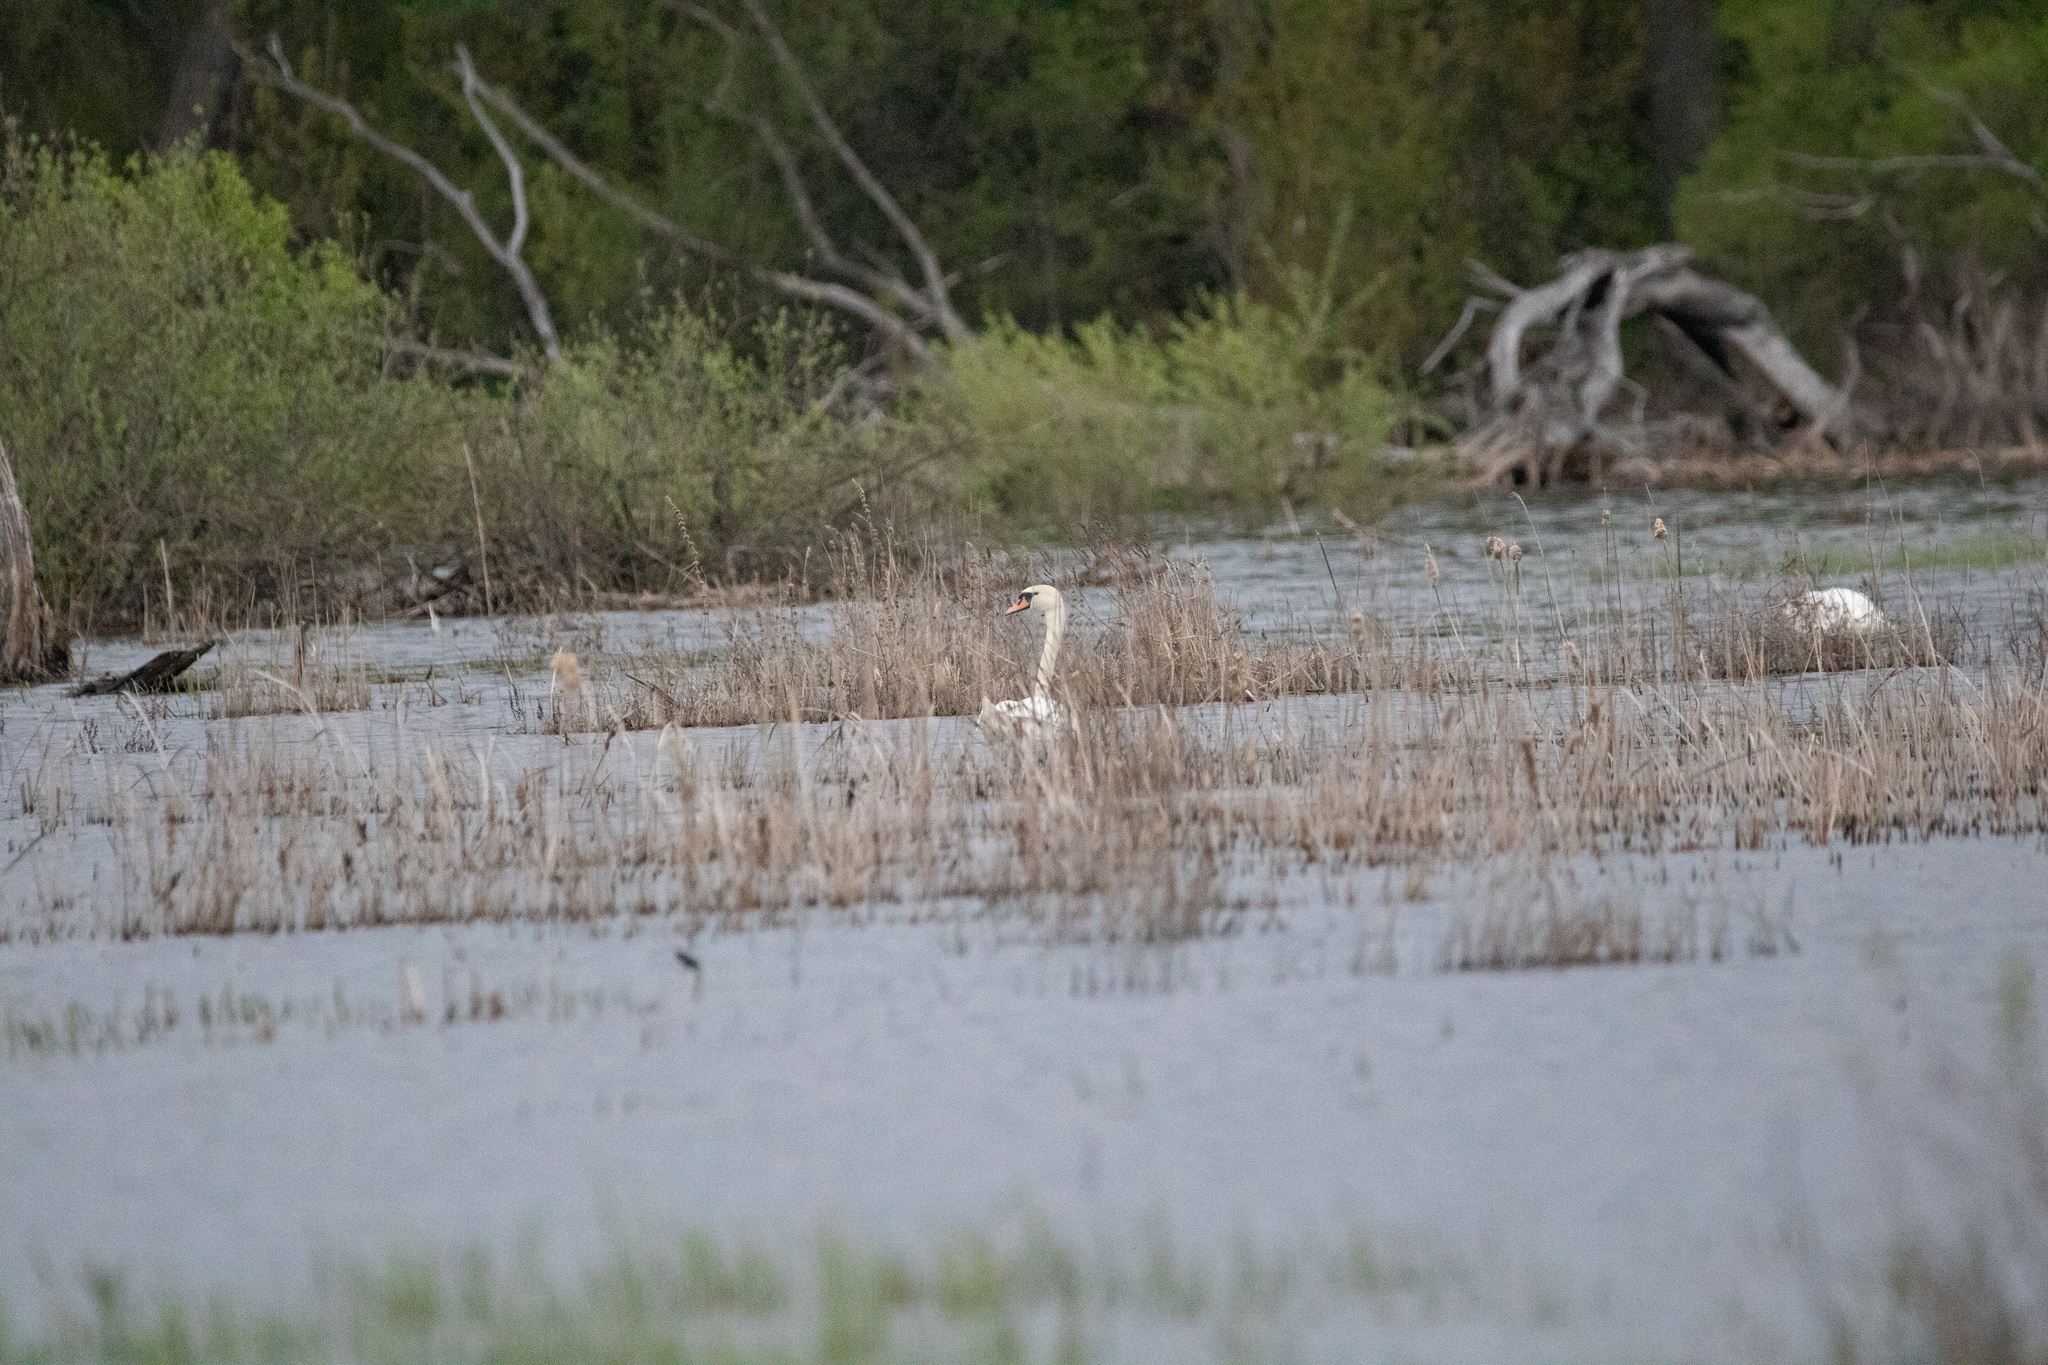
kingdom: Animalia
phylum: Chordata
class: Aves
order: Anseriformes
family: Anatidae
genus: Cygnus
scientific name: Cygnus olor
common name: Mute swan
